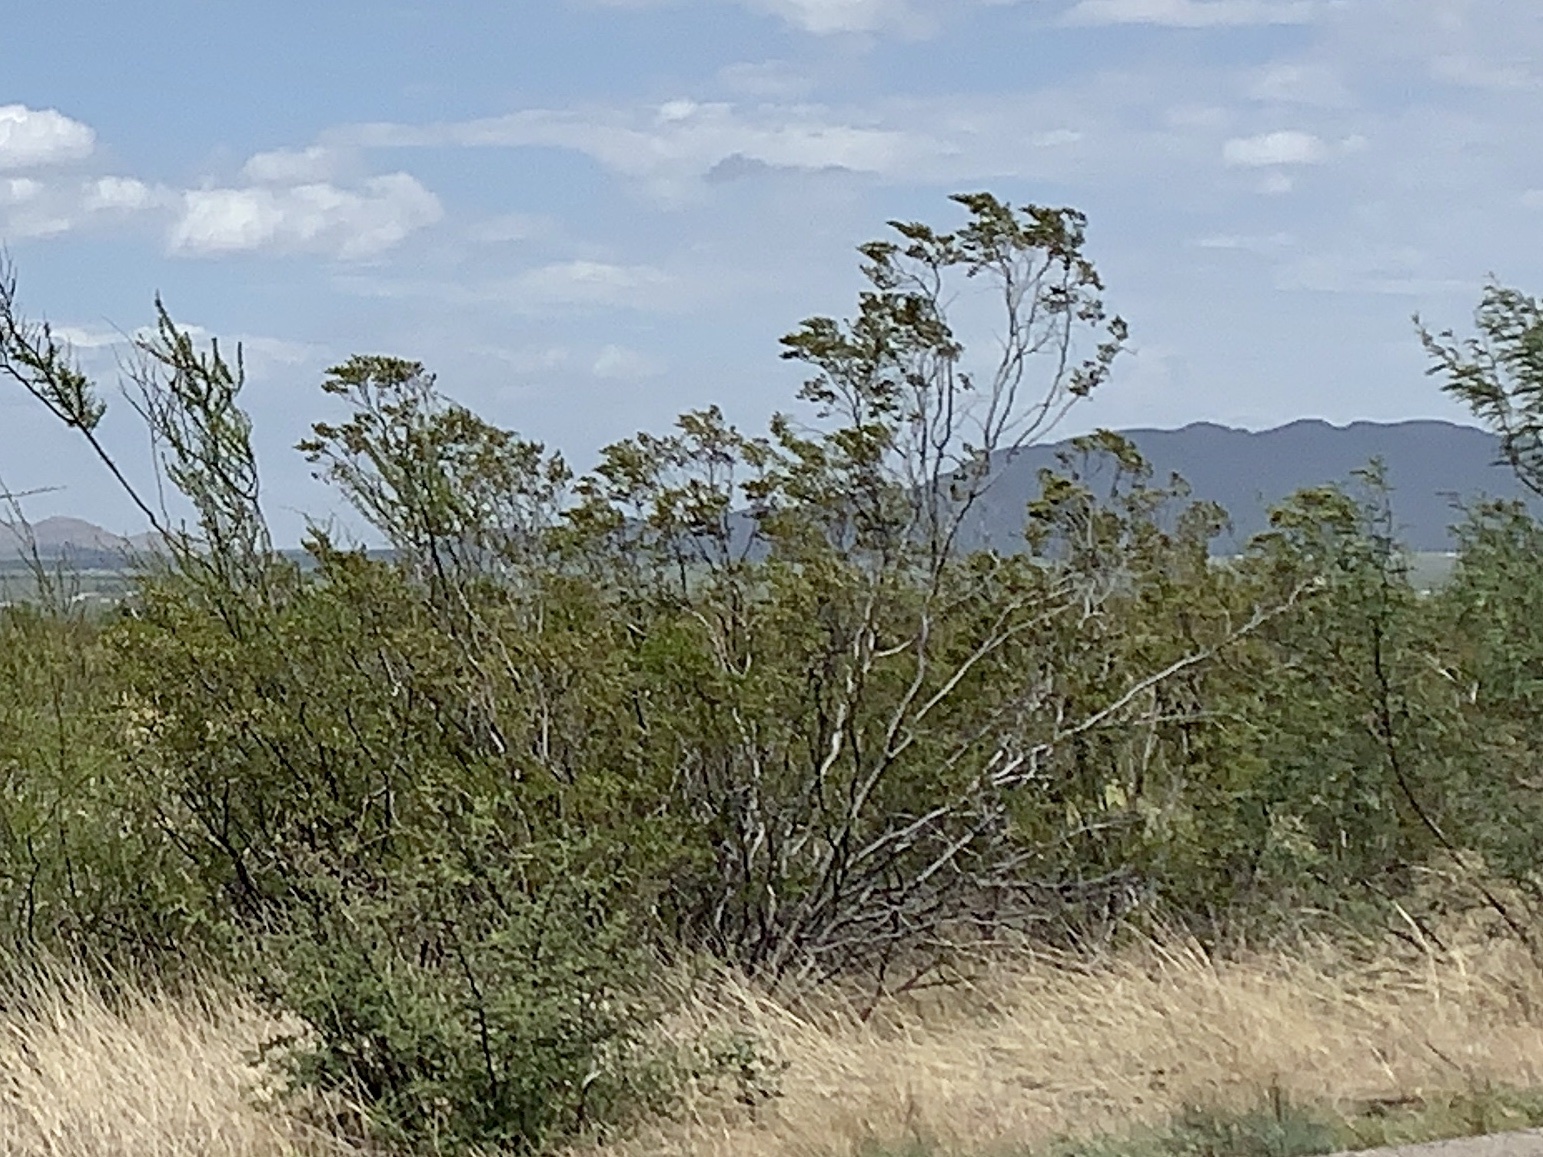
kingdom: Plantae
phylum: Tracheophyta
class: Magnoliopsida
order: Zygophyllales
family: Zygophyllaceae
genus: Larrea
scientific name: Larrea tridentata
